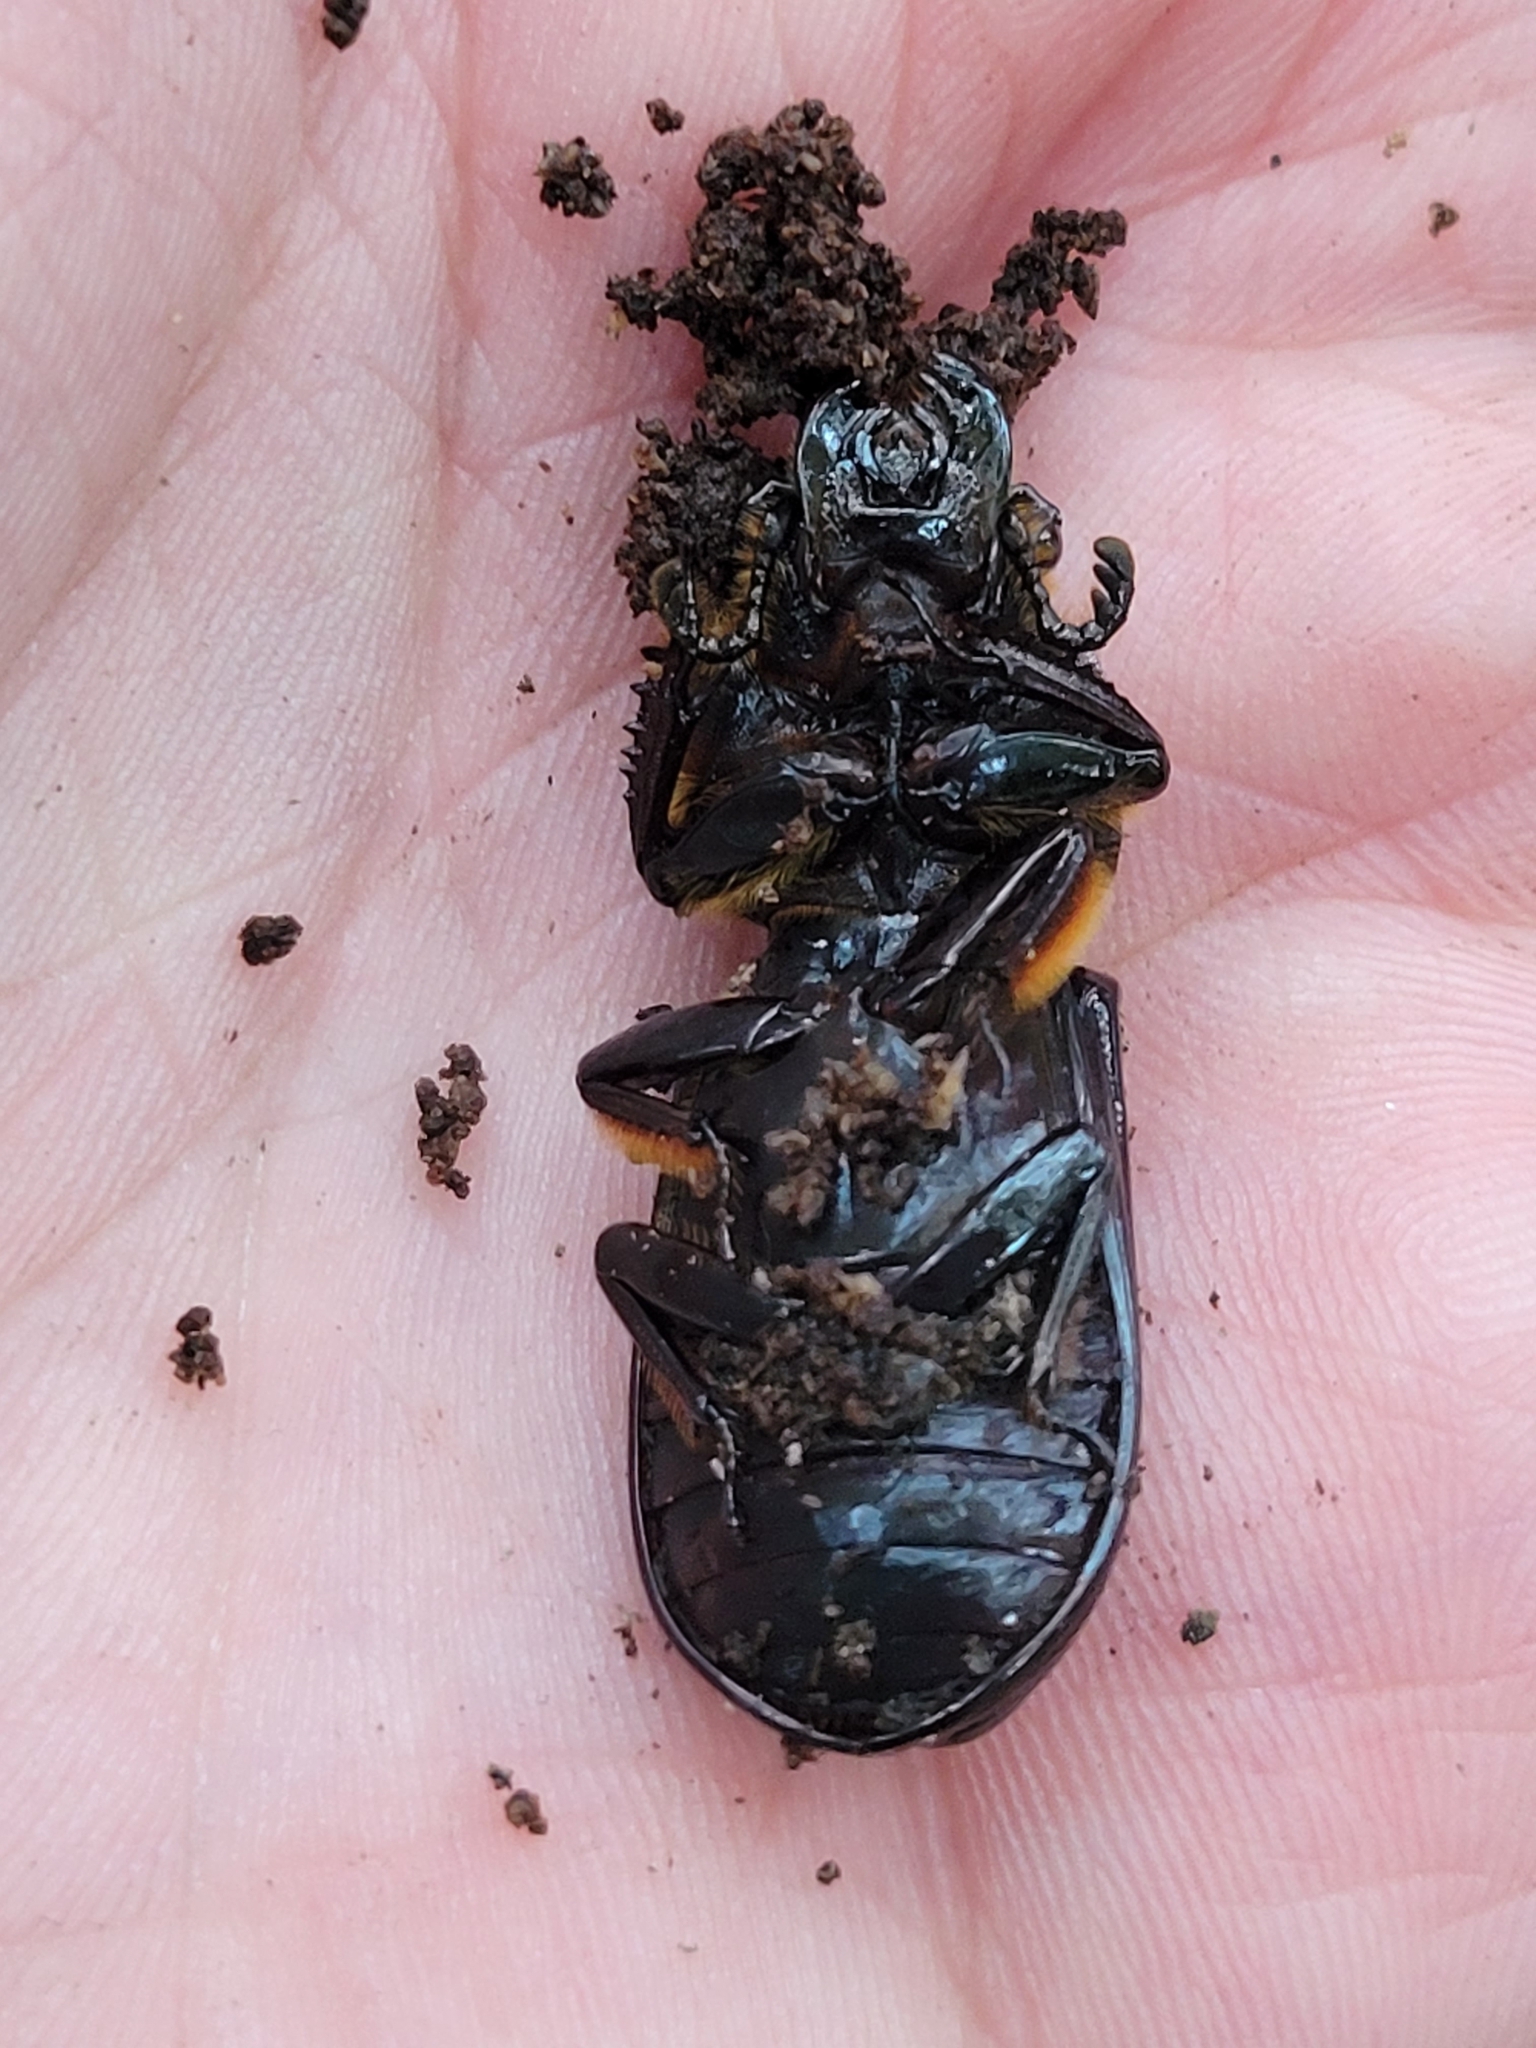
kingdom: Animalia
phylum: Arthropoda
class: Insecta
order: Coleoptera
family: Passalidae
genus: Odontotaenius
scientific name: Odontotaenius disjunctus
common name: Patent leather beetle
